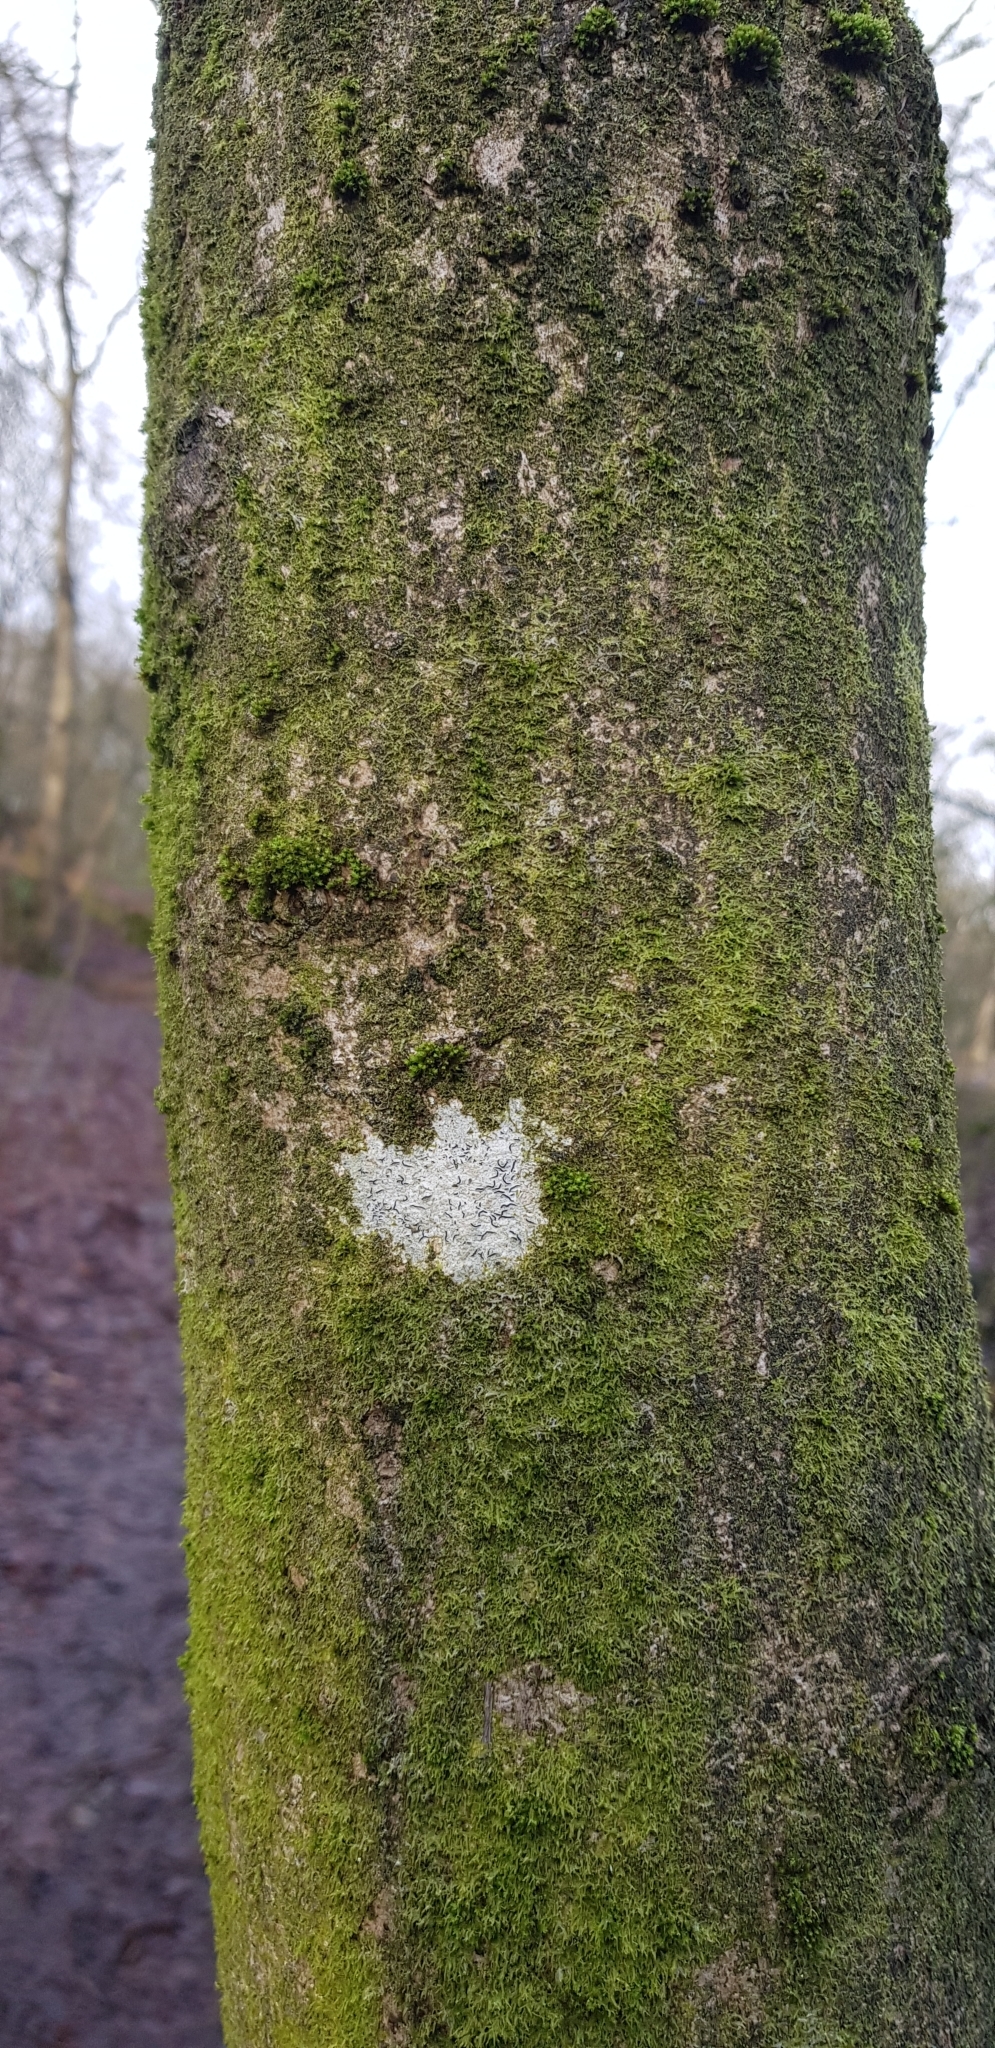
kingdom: Plantae
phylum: Bryophyta
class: Bryopsida
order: Orthotrichales
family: Orthotrichaceae
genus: Zygodon
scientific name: Zygodon conoideus
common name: Lesser yoke-moss
